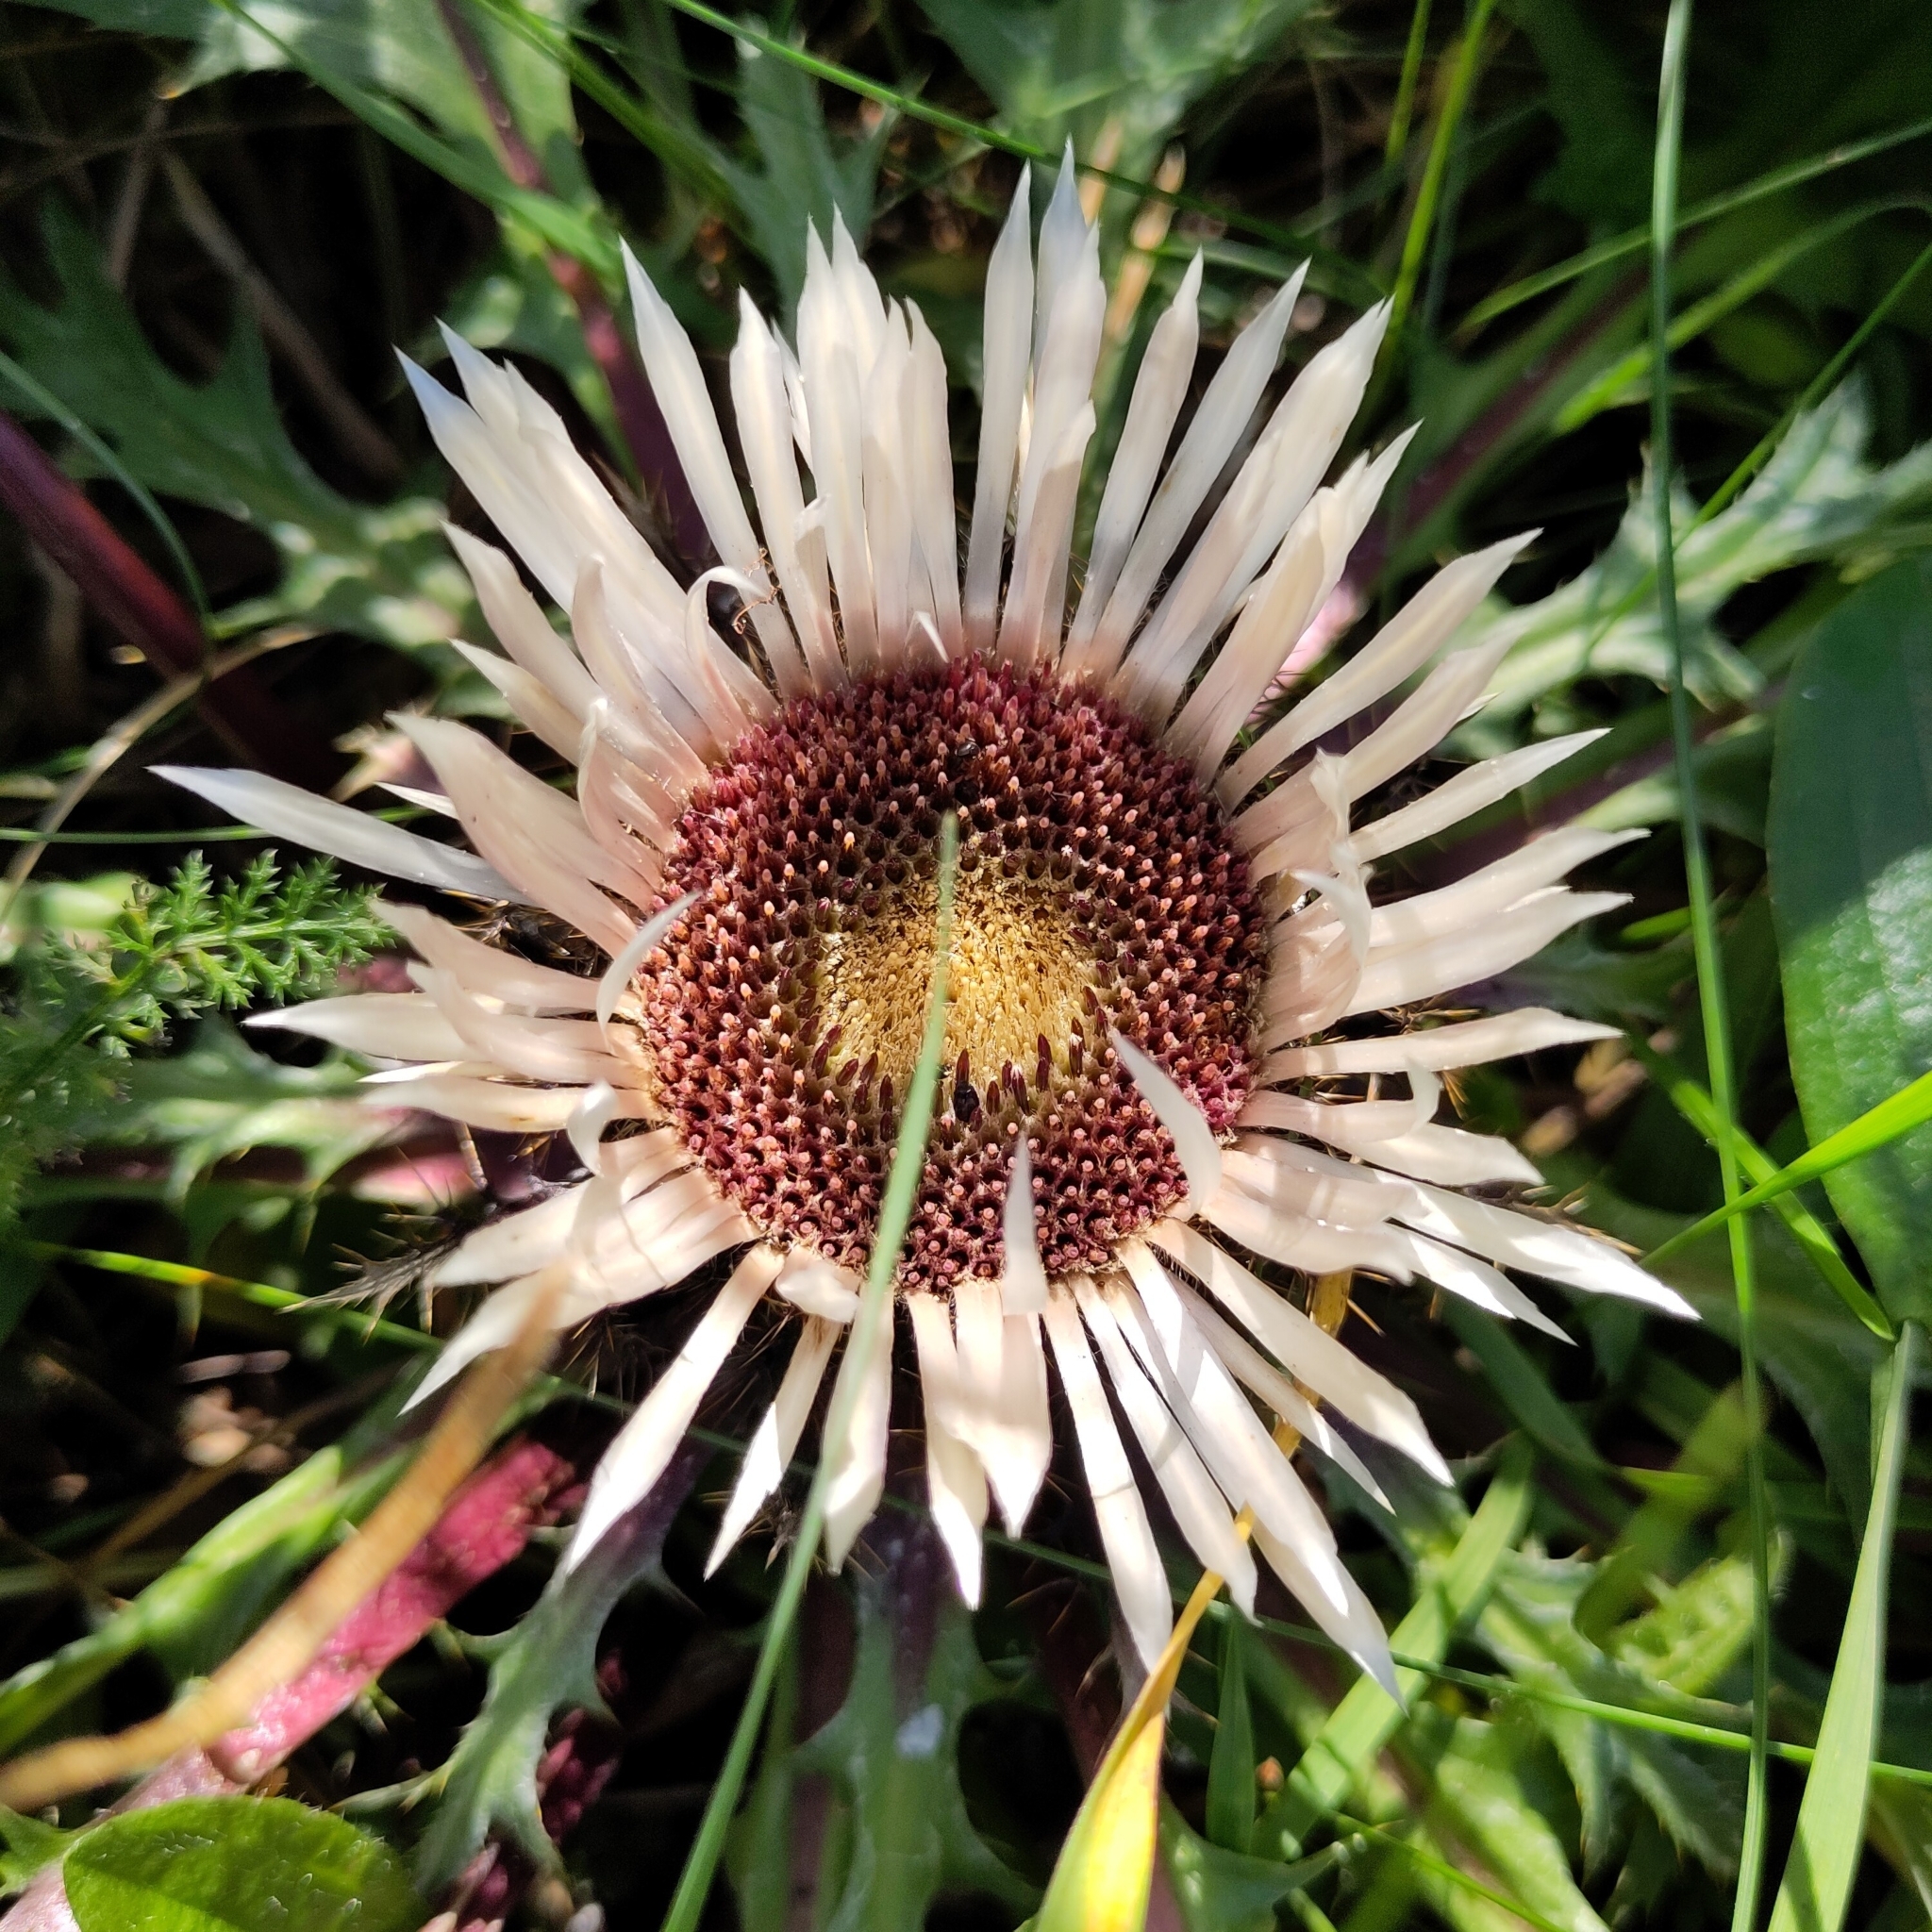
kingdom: Plantae
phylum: Tracheophyta
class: Magnoliopsida
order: Asterales
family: Asteraceae
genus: Carlina
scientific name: Carlina acaulis
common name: Stemless carline thistle
